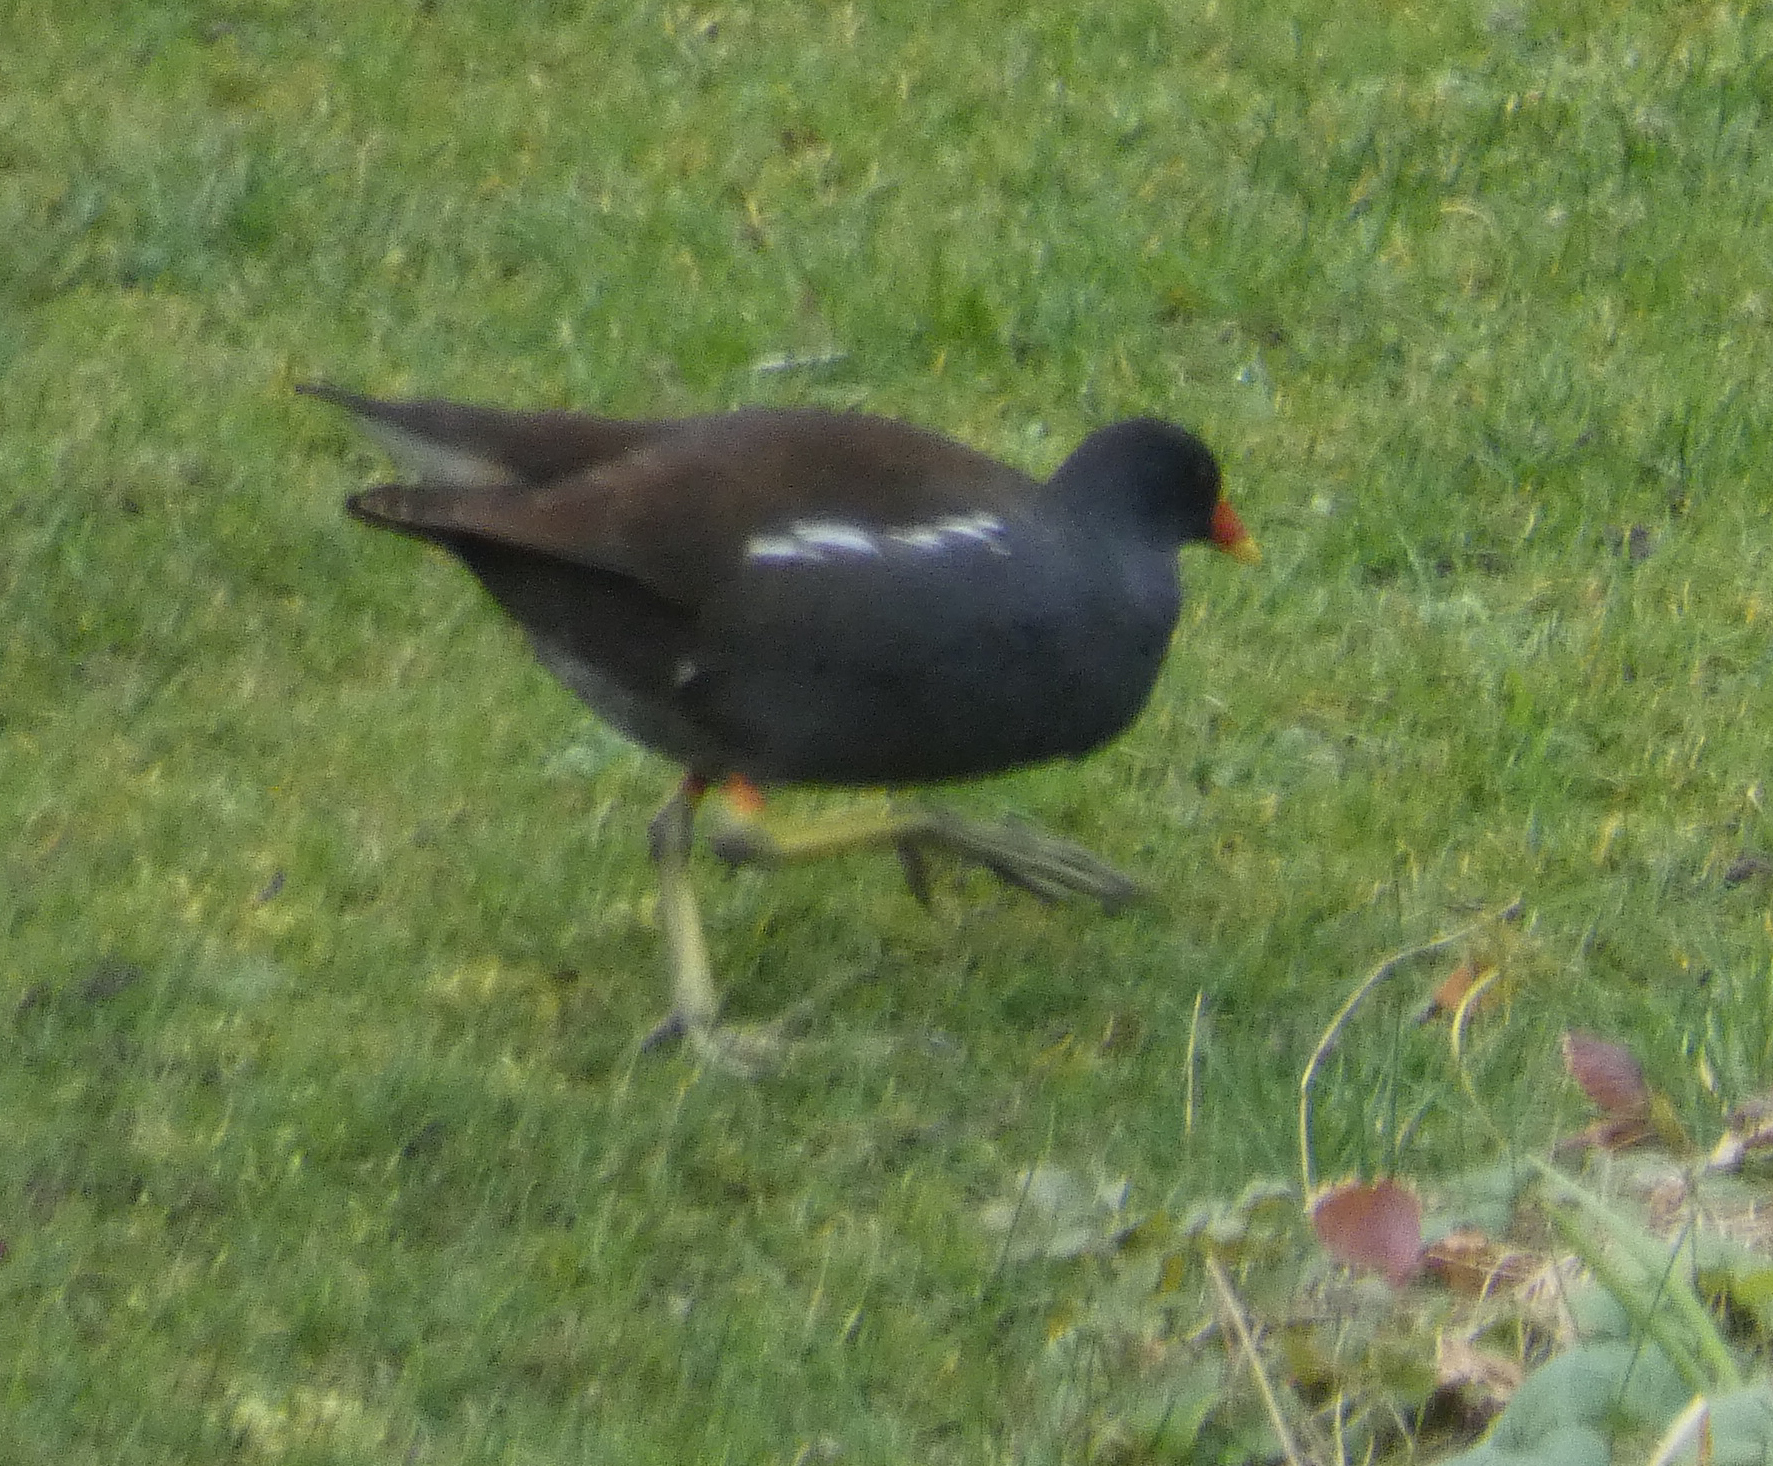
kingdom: Animalia
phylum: Chordata
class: Aves
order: Gruiformes
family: Rallidae
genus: Gallinula
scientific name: Gallinula chloropus
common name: Common moorhen
